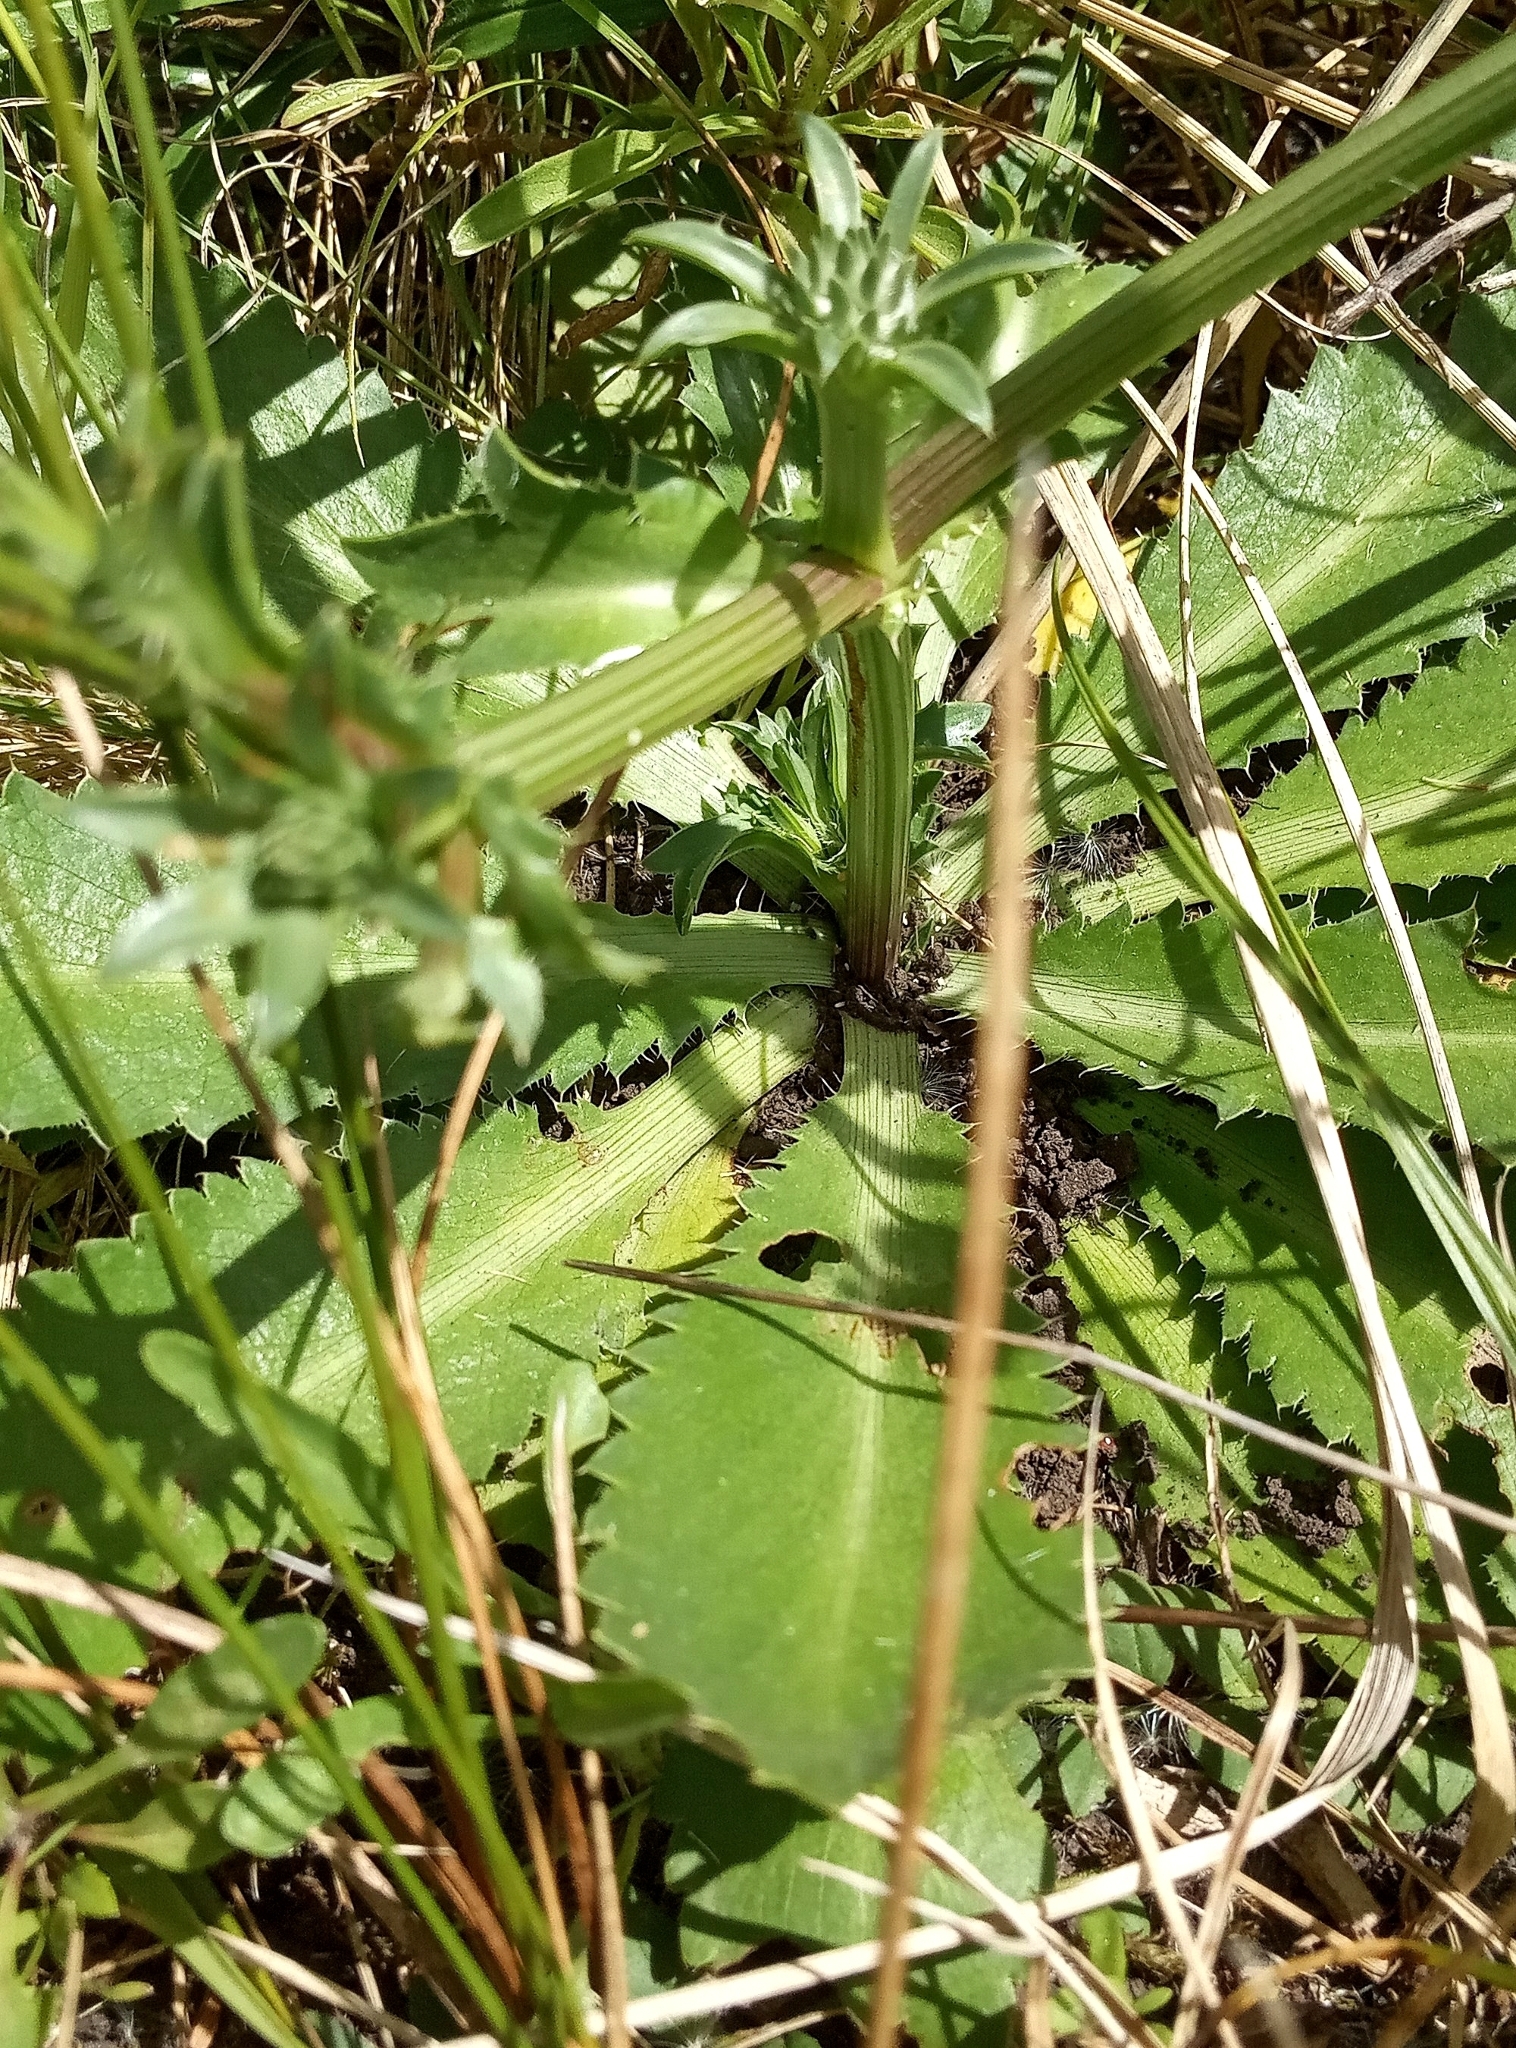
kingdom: Plantae
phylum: Tracheophyta
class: Magnoliopsida
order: Apiales
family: Apiaceae
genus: Eryngium
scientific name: Eryngium nudicaule
